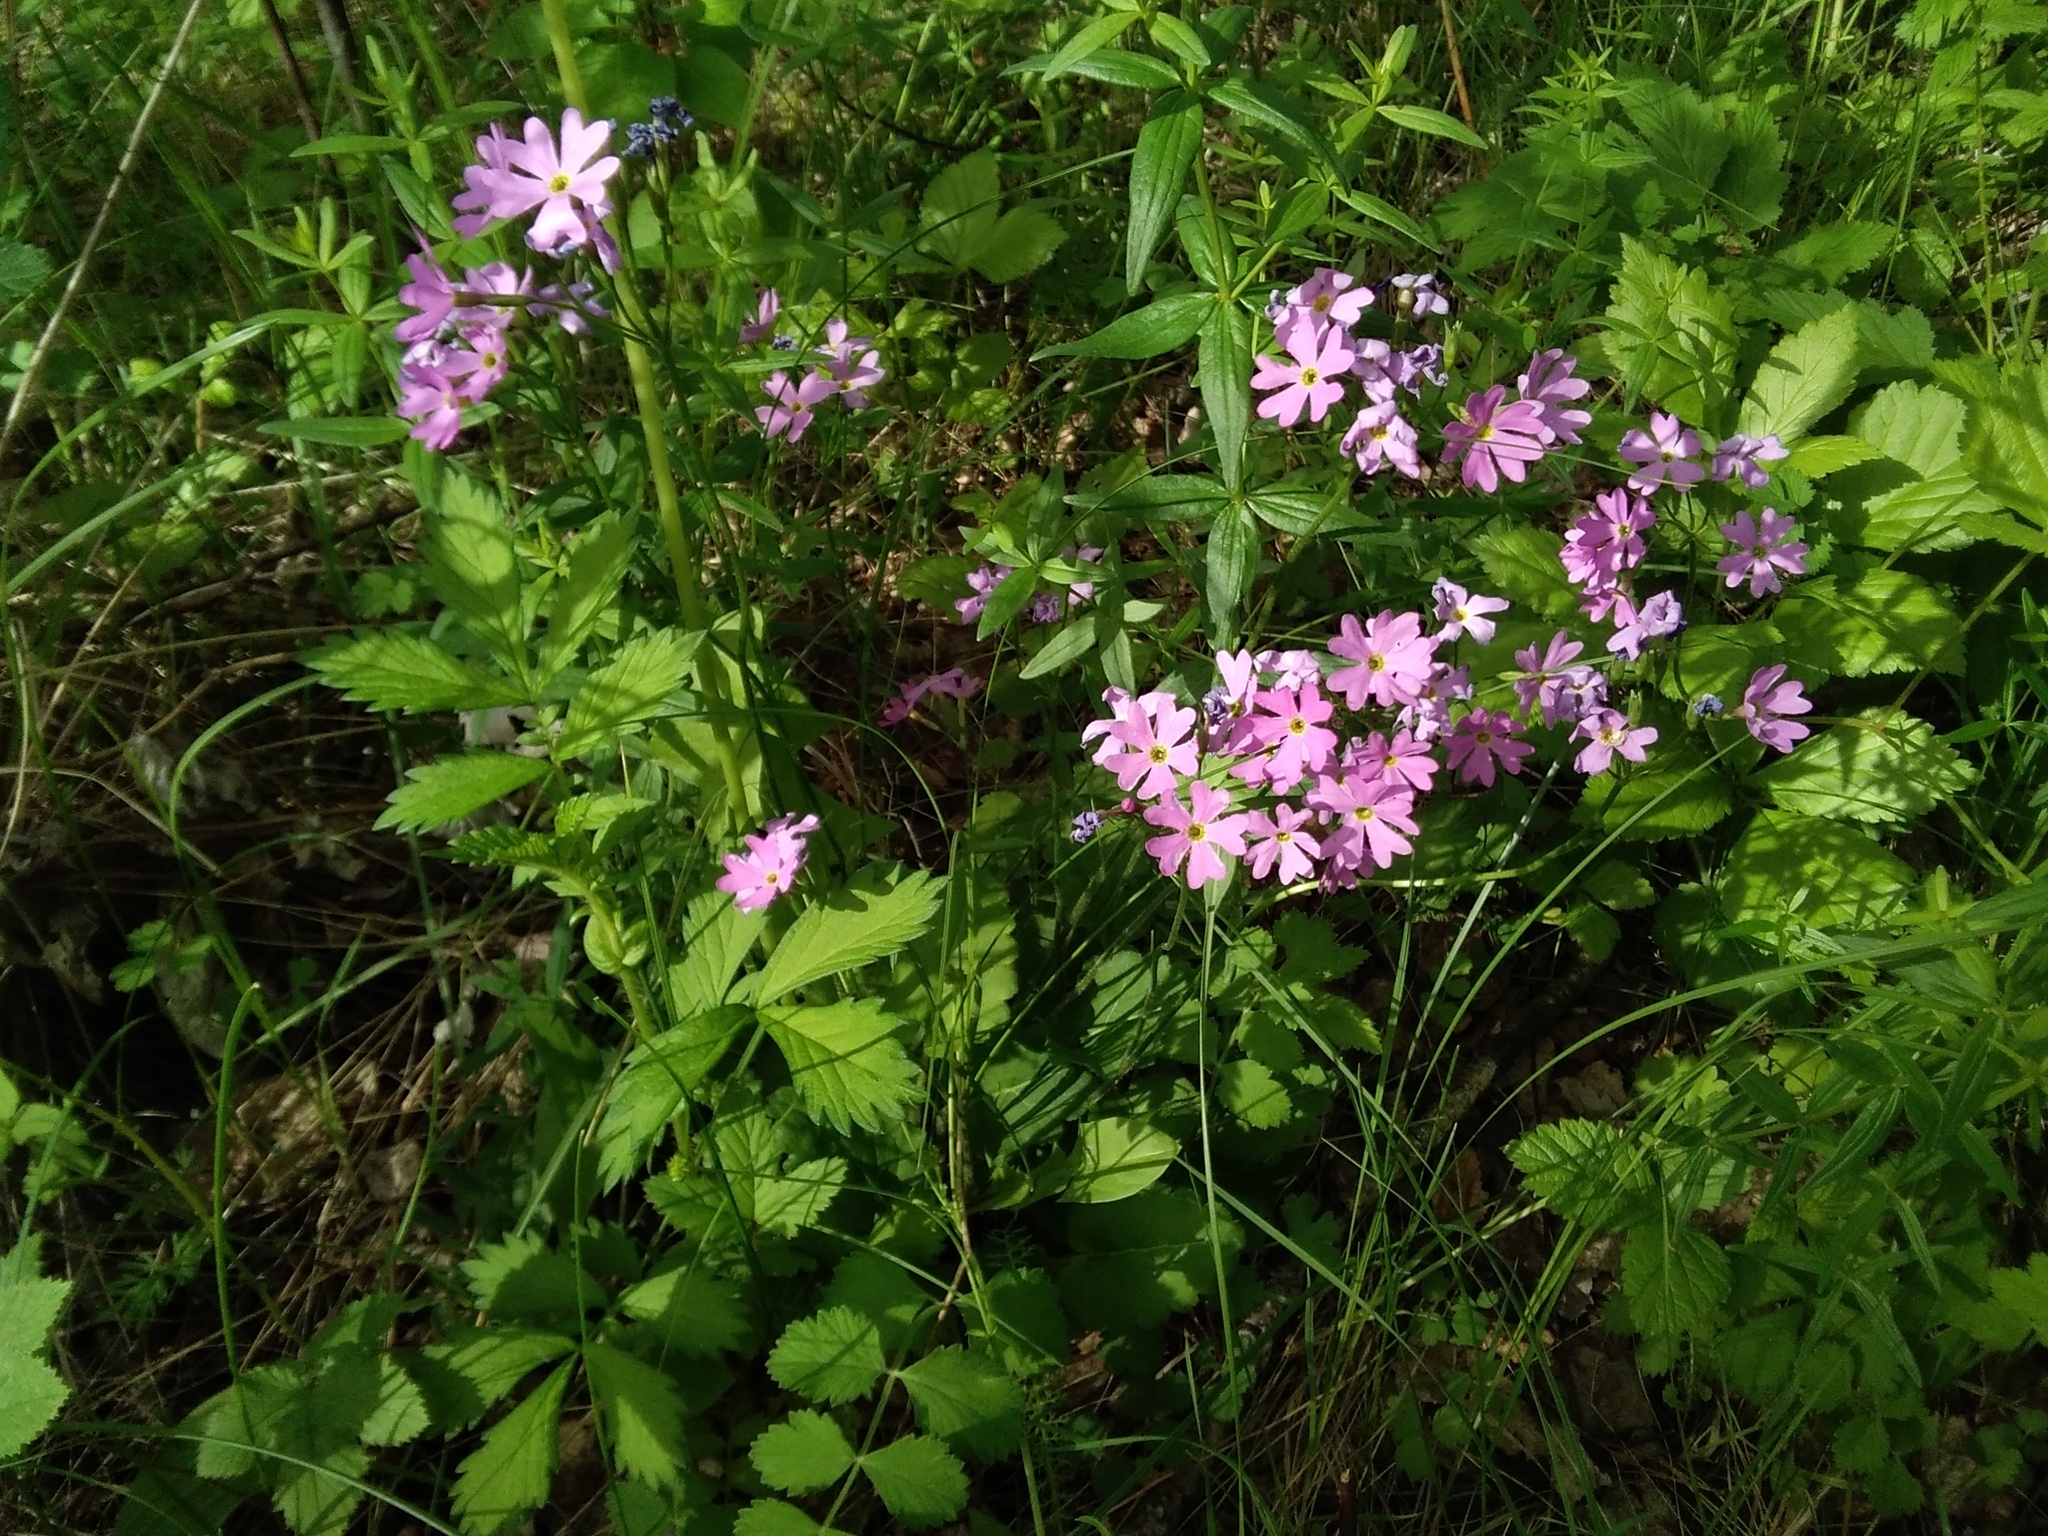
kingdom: Plantae
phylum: Tracheophyta
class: Magnoliopsida
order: Ericales
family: Primulaceae
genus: Primula
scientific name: Primula cortusoides
